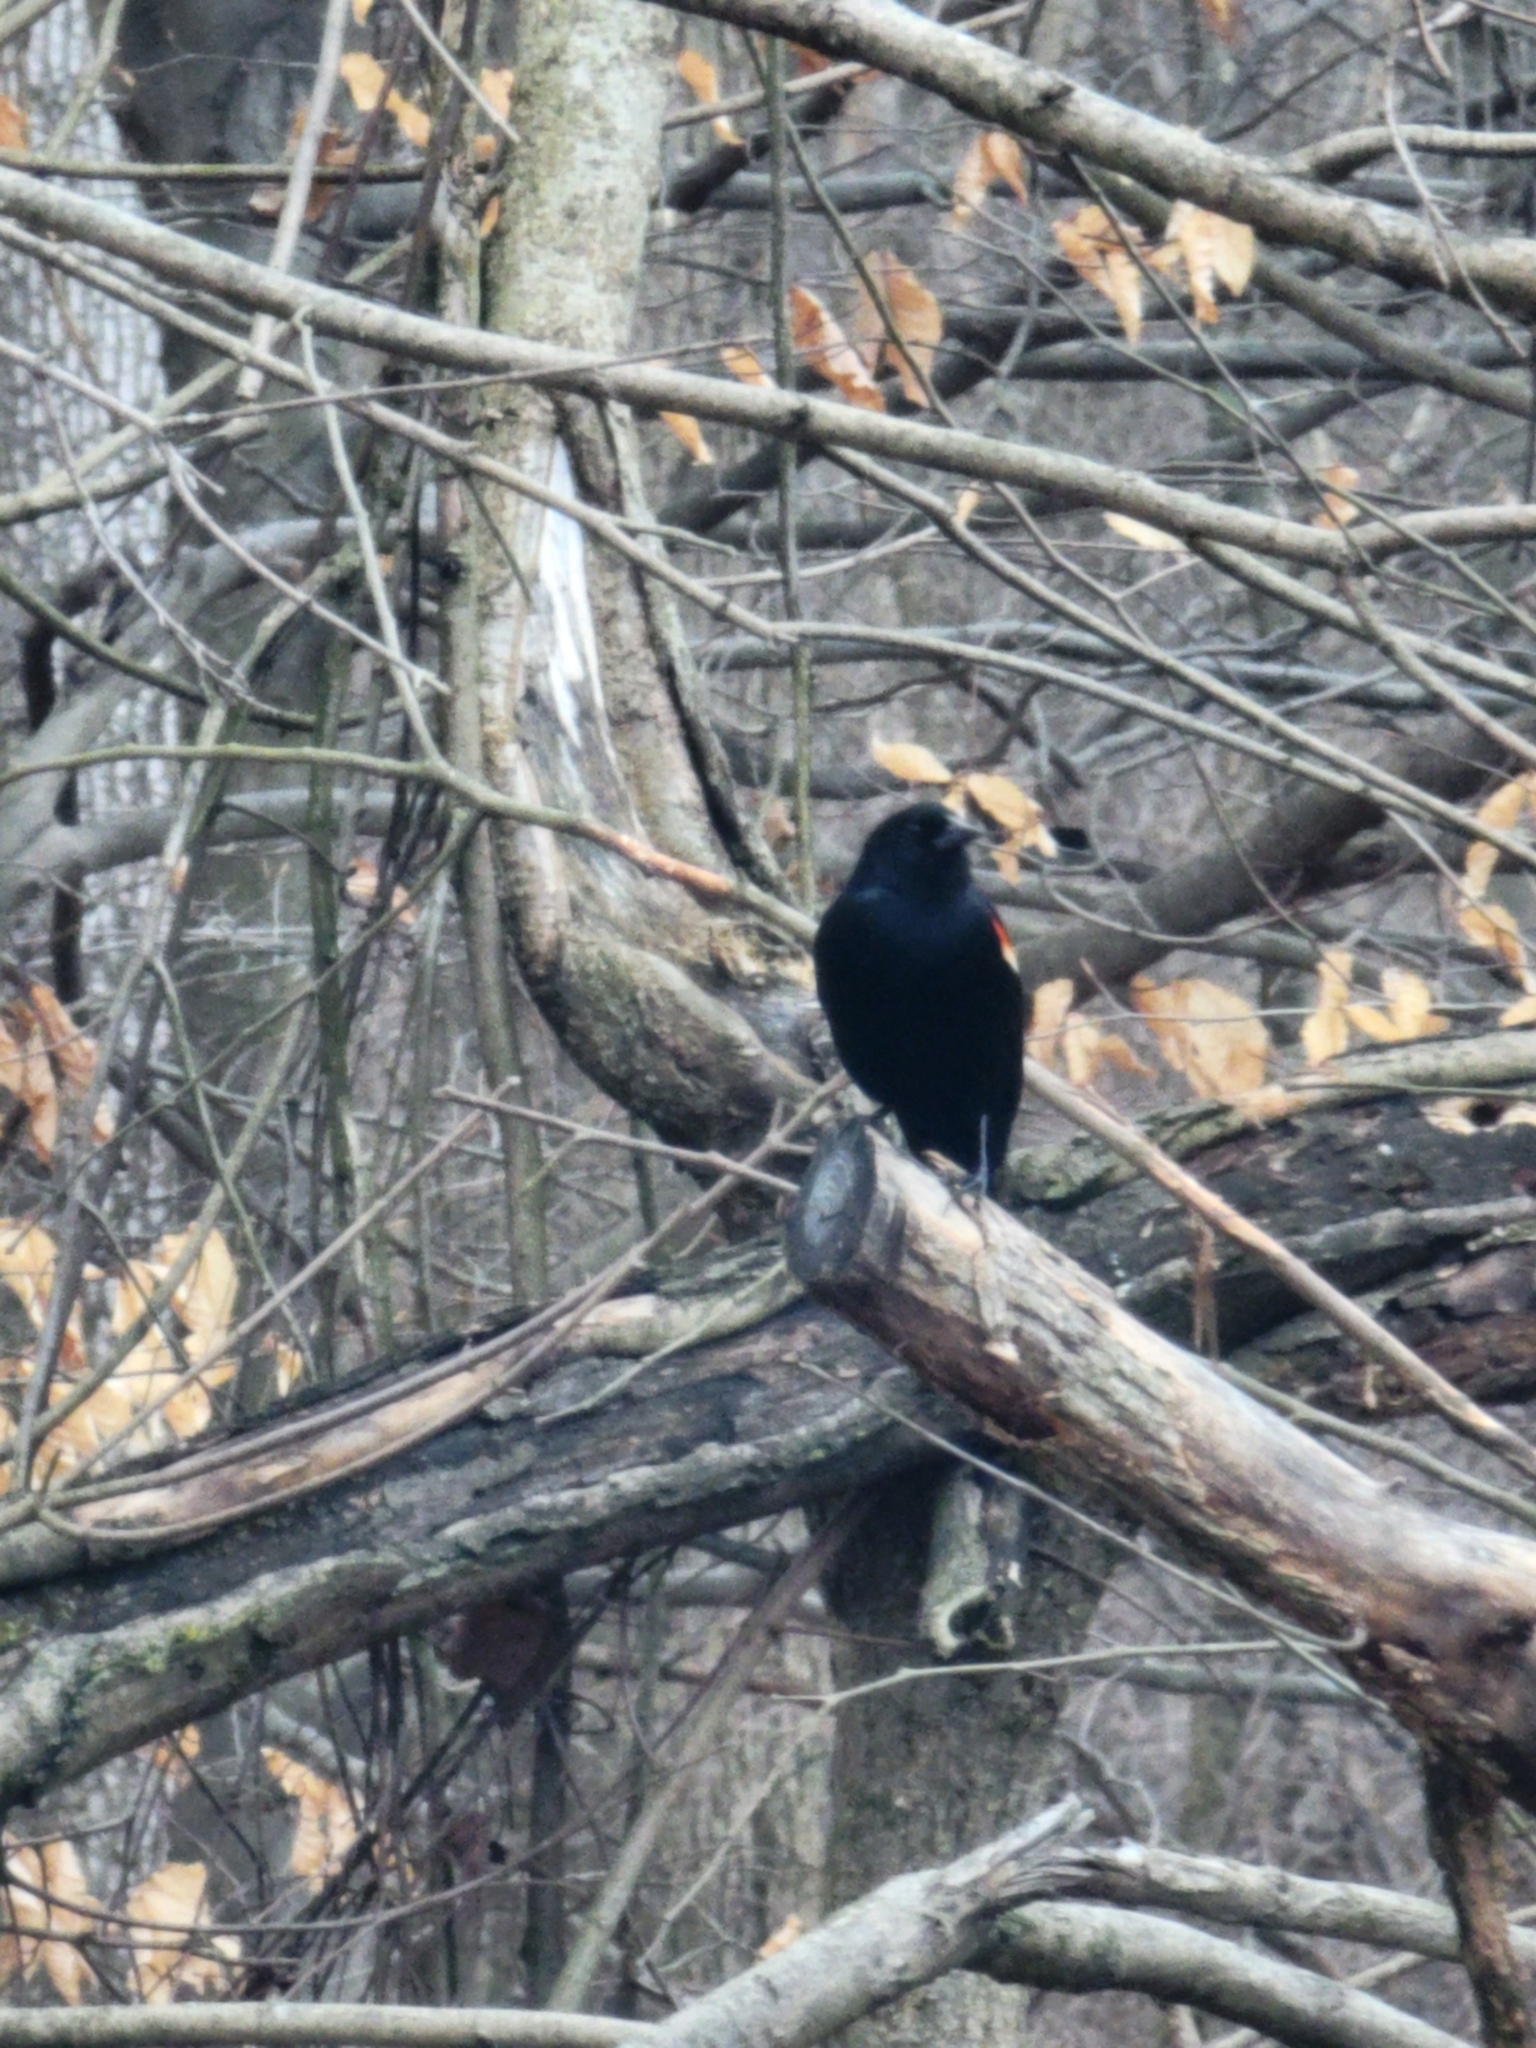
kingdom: Animalia
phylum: Chordata
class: Aves
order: Passeriformes
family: Icteridae
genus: Agelaius
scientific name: Agelaius phoeniceus
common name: Red-winged blackbird
